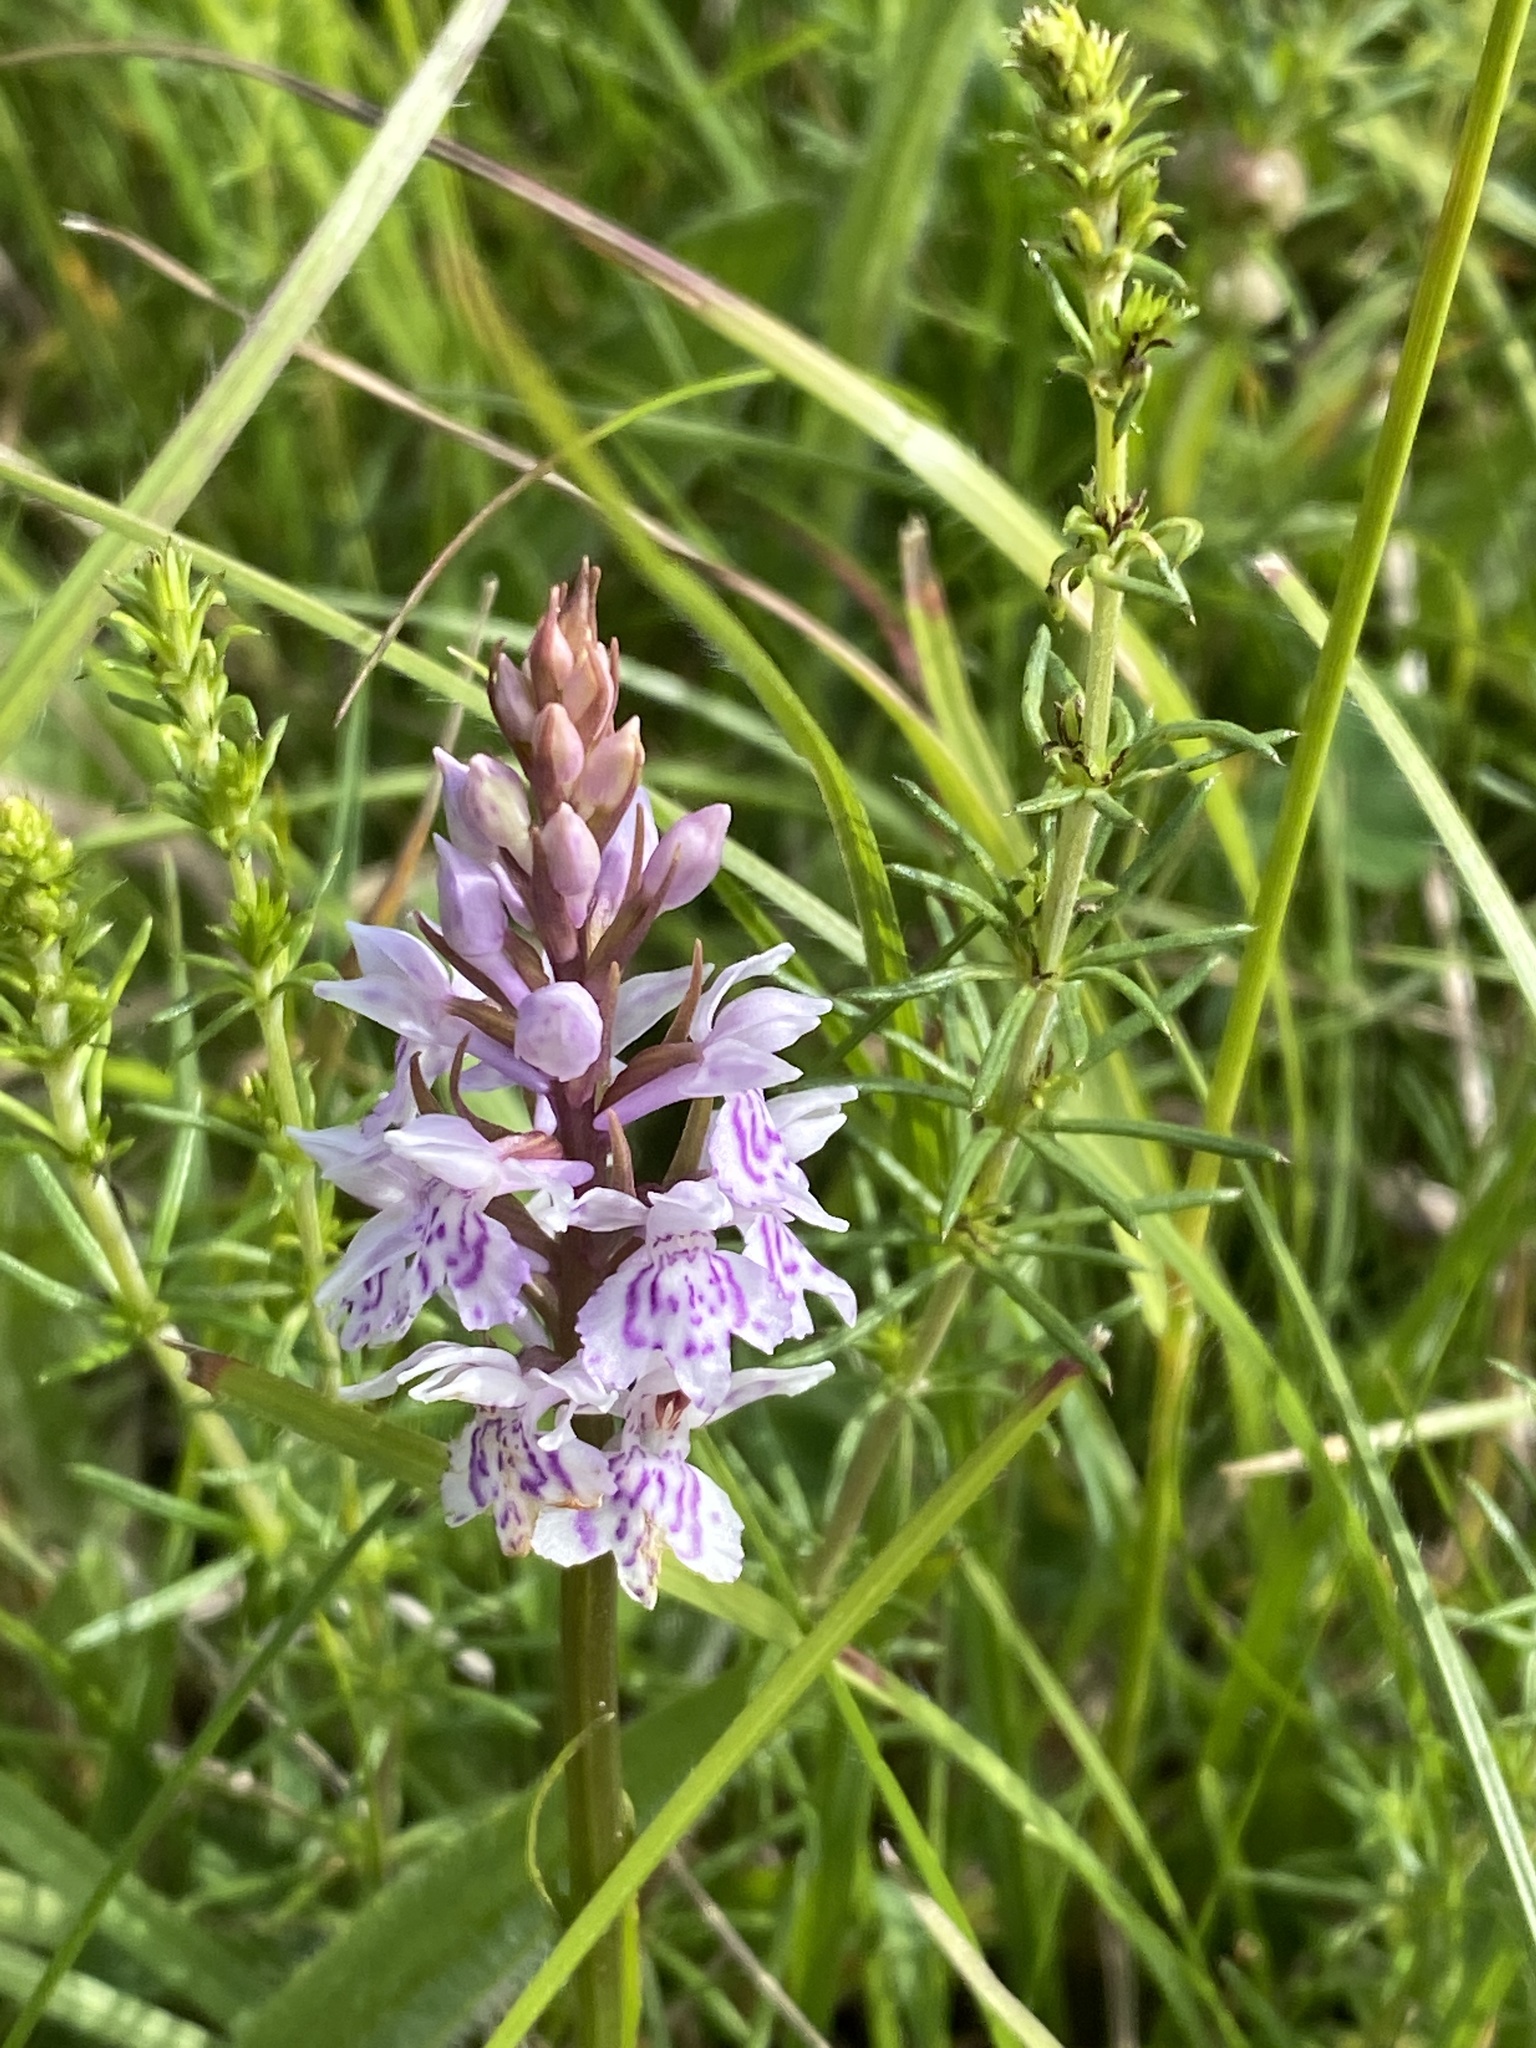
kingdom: Plantae
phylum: Tracheophyta
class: Liliopsida
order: Asparagales
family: Orchidaceae
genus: Dactylorhiza
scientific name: Dactylorhiza maculata
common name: Heath spotted-orchid
